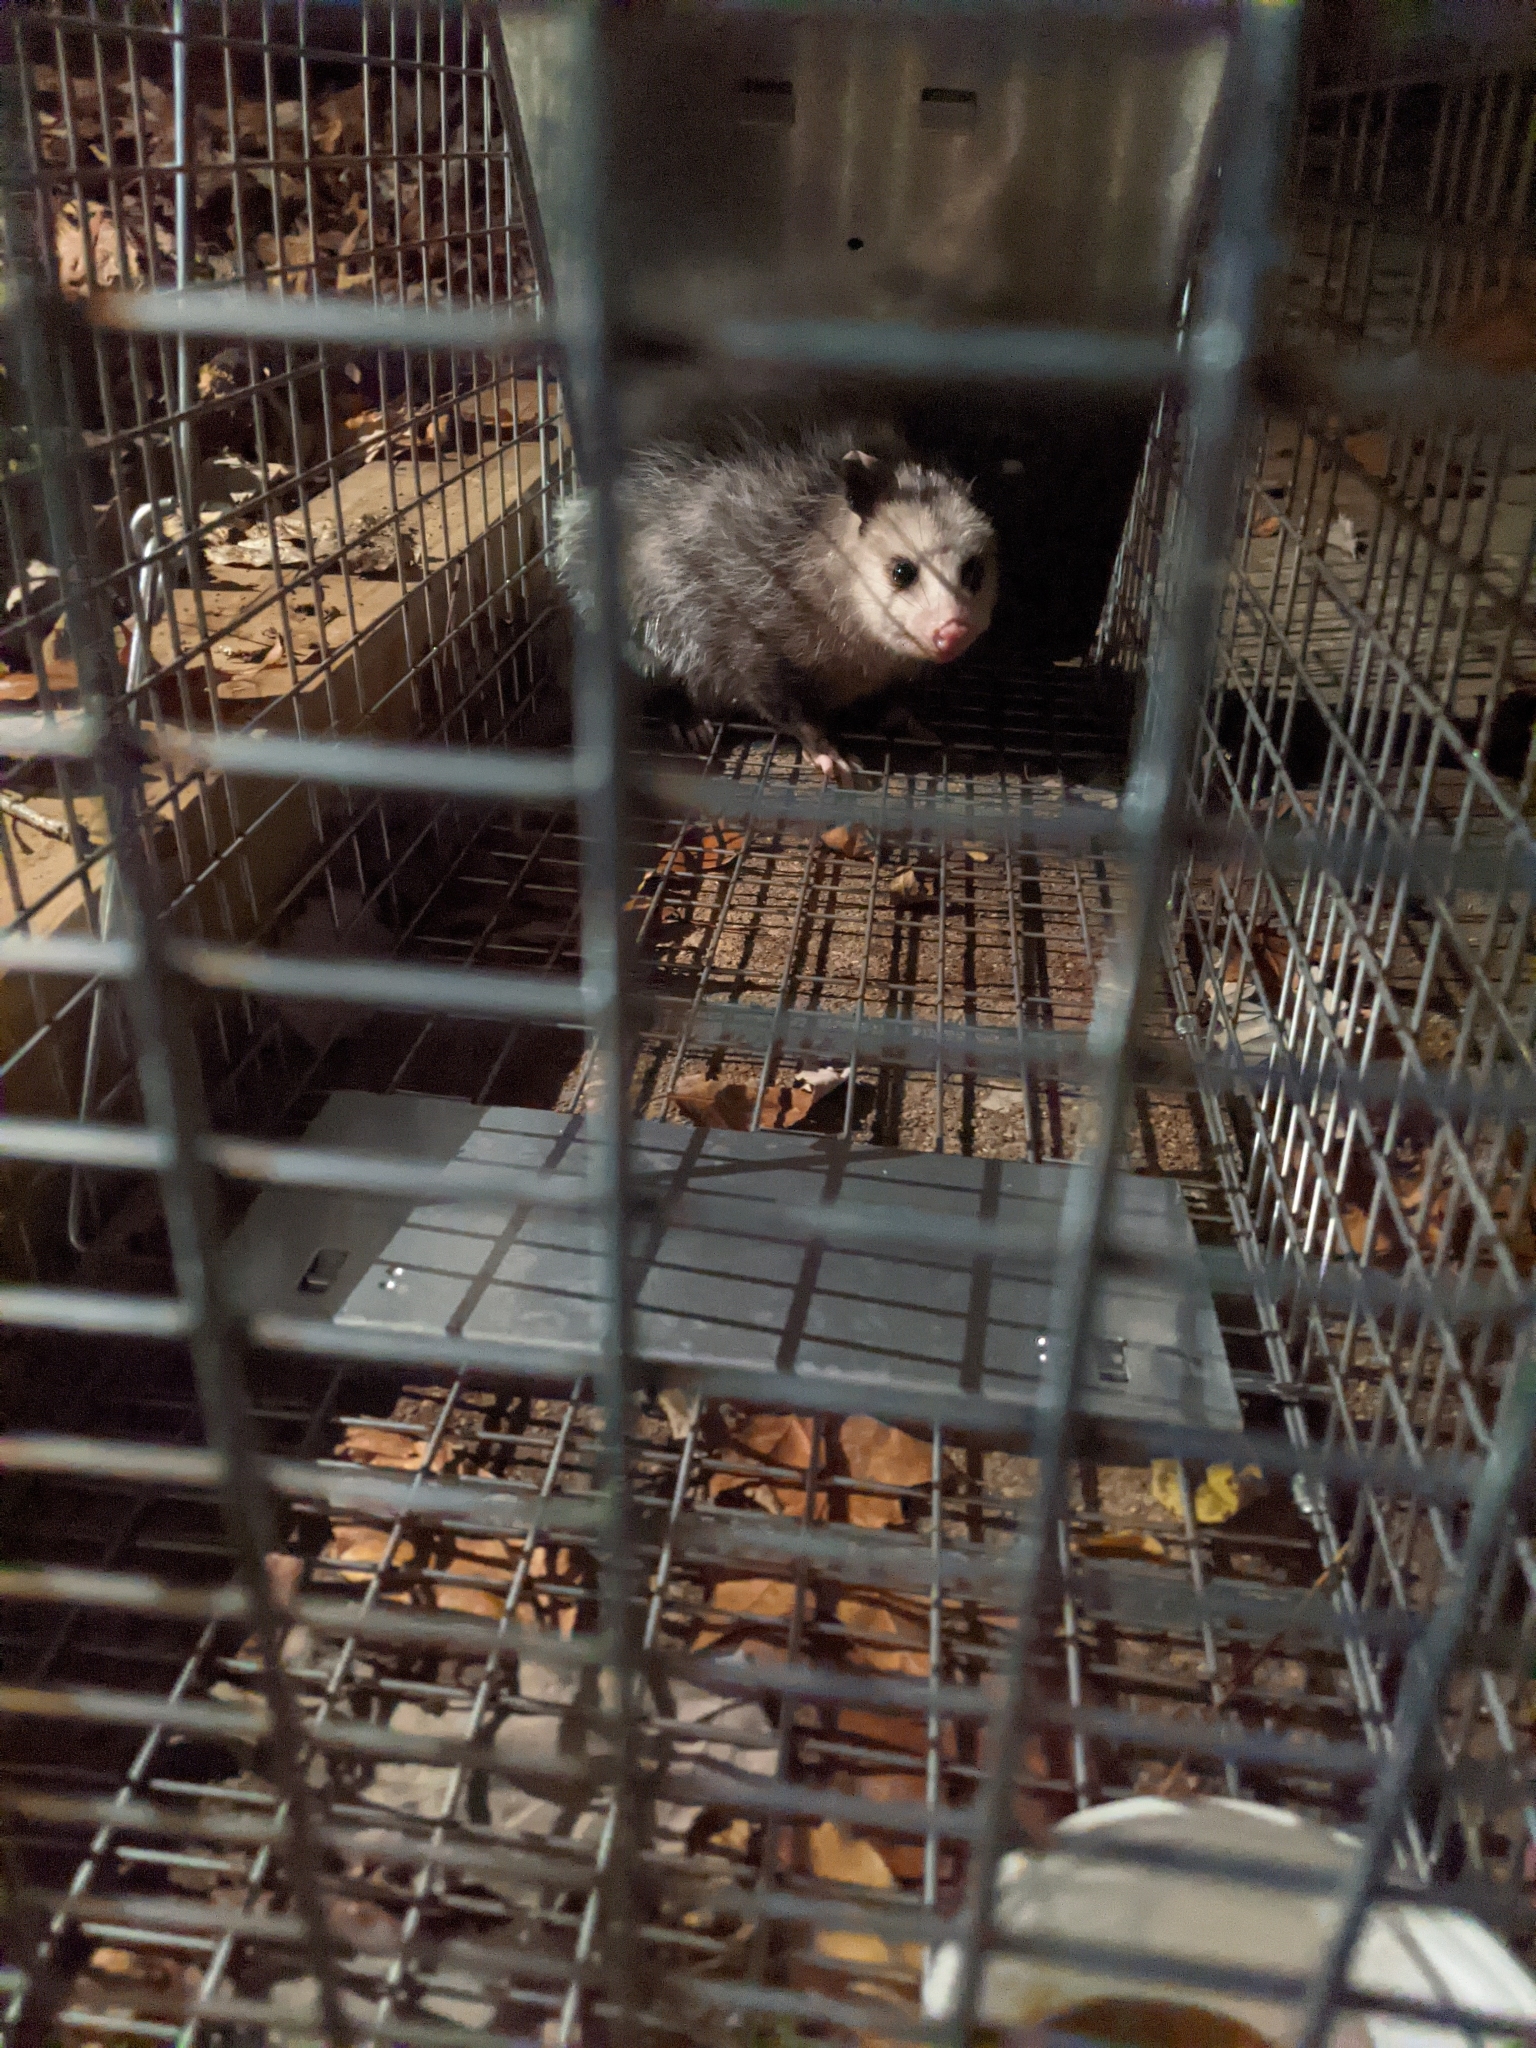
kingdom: Animalia
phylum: Chordata
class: Mammalia
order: Didelphimorphia
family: Didelphidae
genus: Didelphis
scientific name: Didelphis virginiana
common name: Virginia opossum
